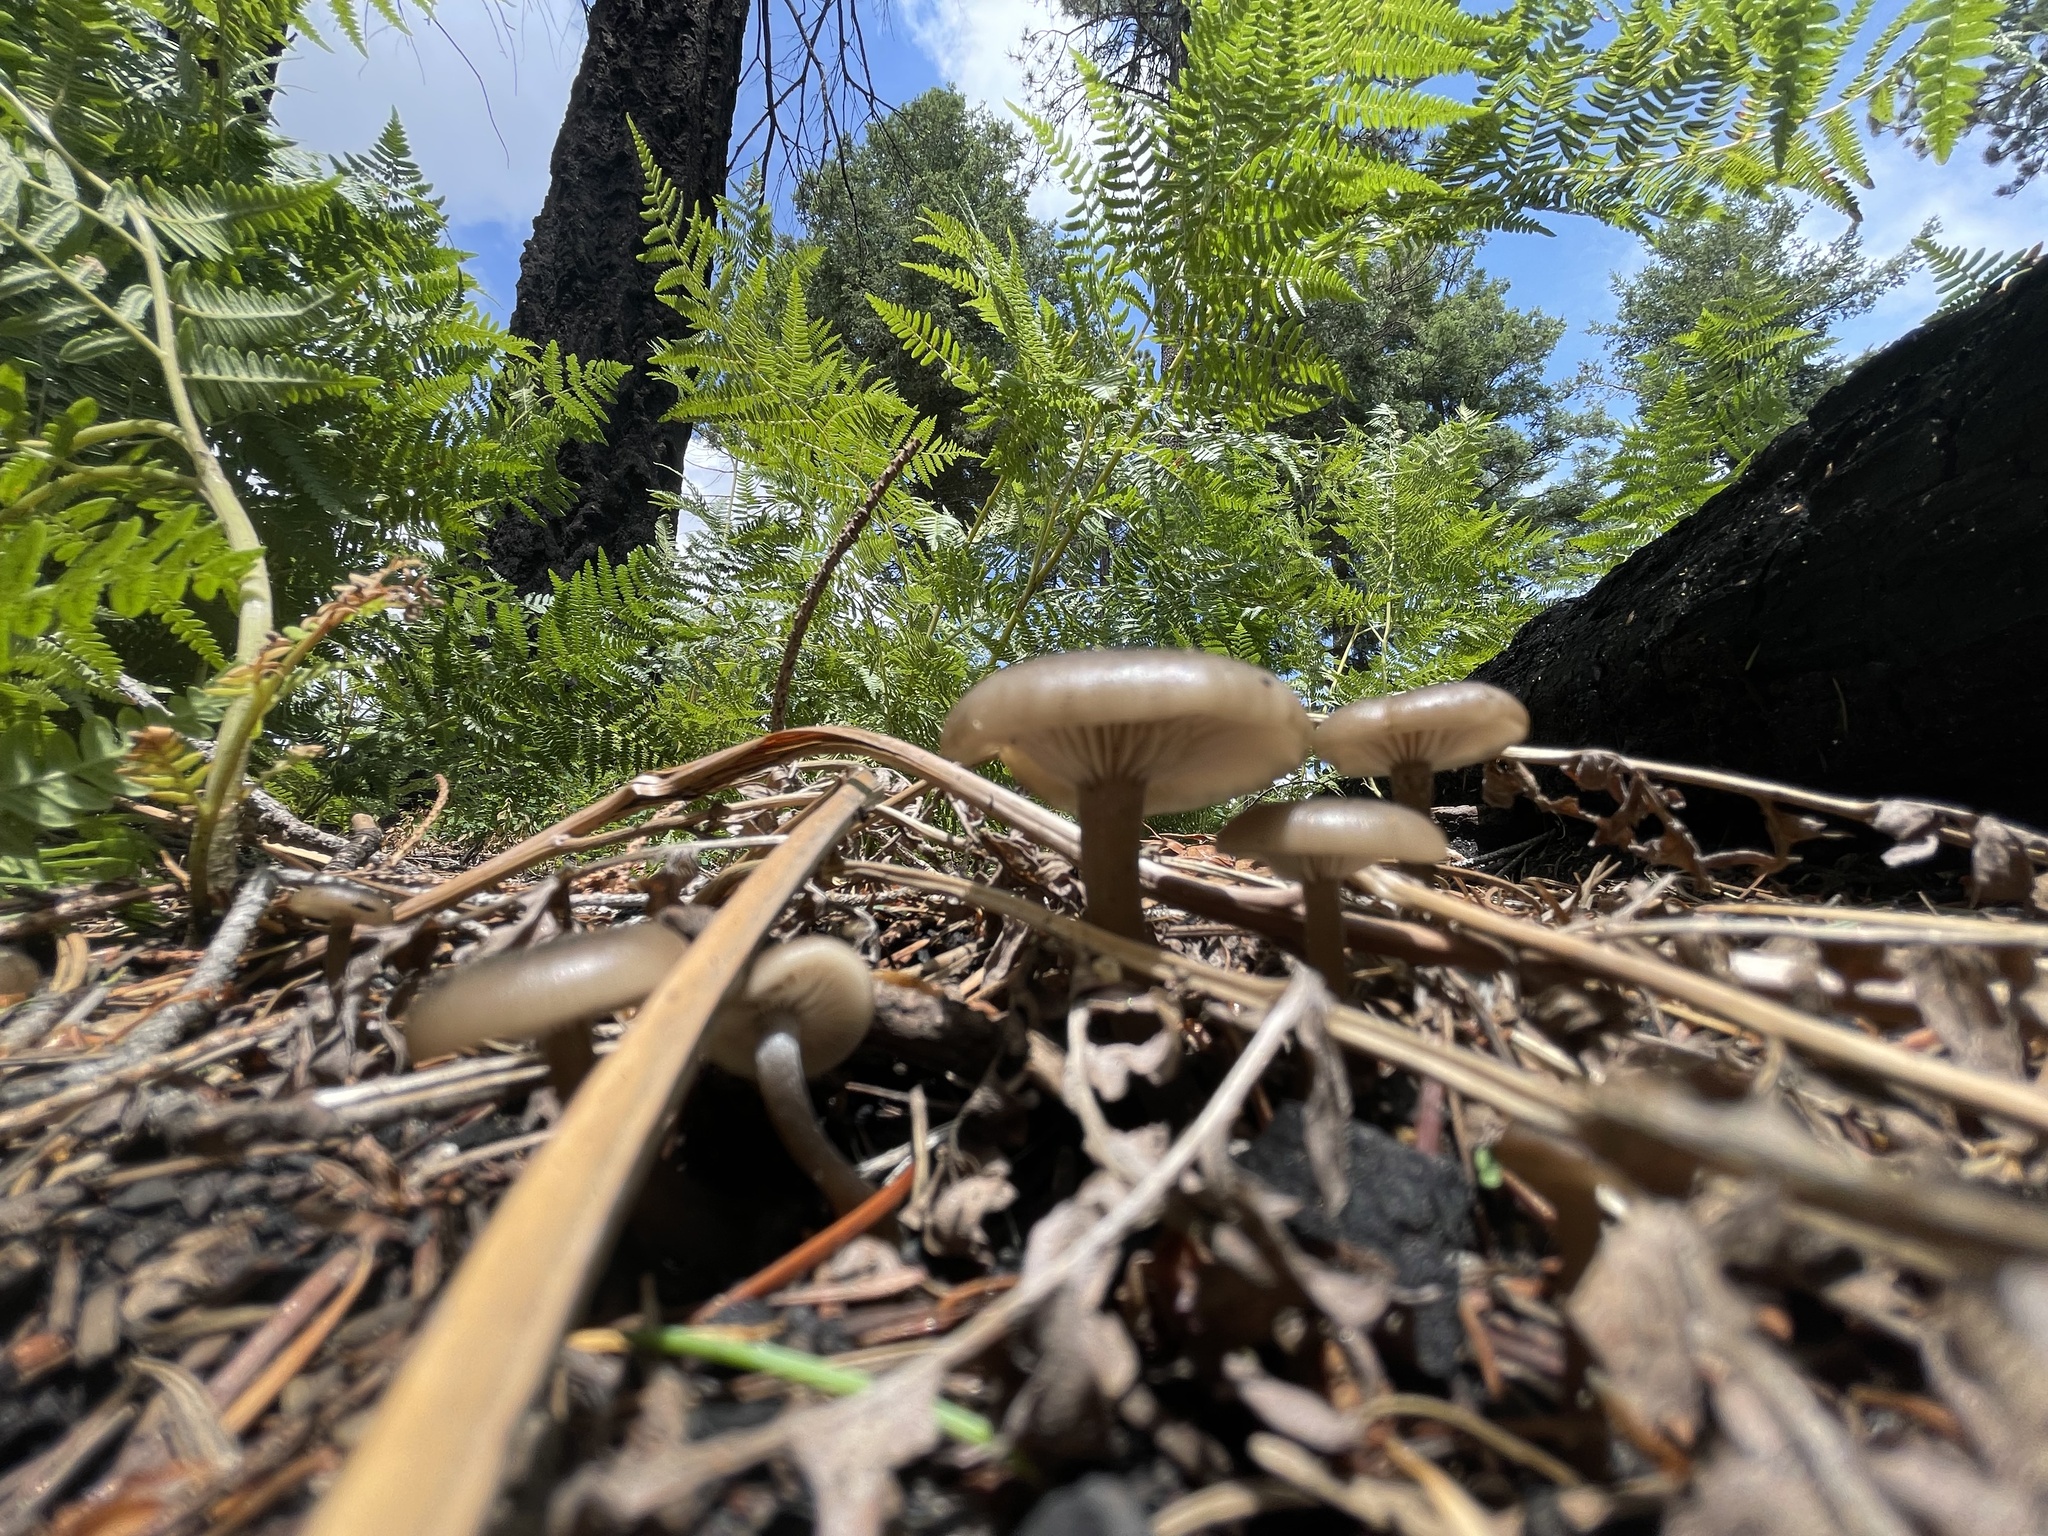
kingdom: Fungi
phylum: Basidiomycota
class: Agaricomycetes
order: Agaricales
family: Tricholomataceae
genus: Myxomphalia
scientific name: Myxomphalia maura
